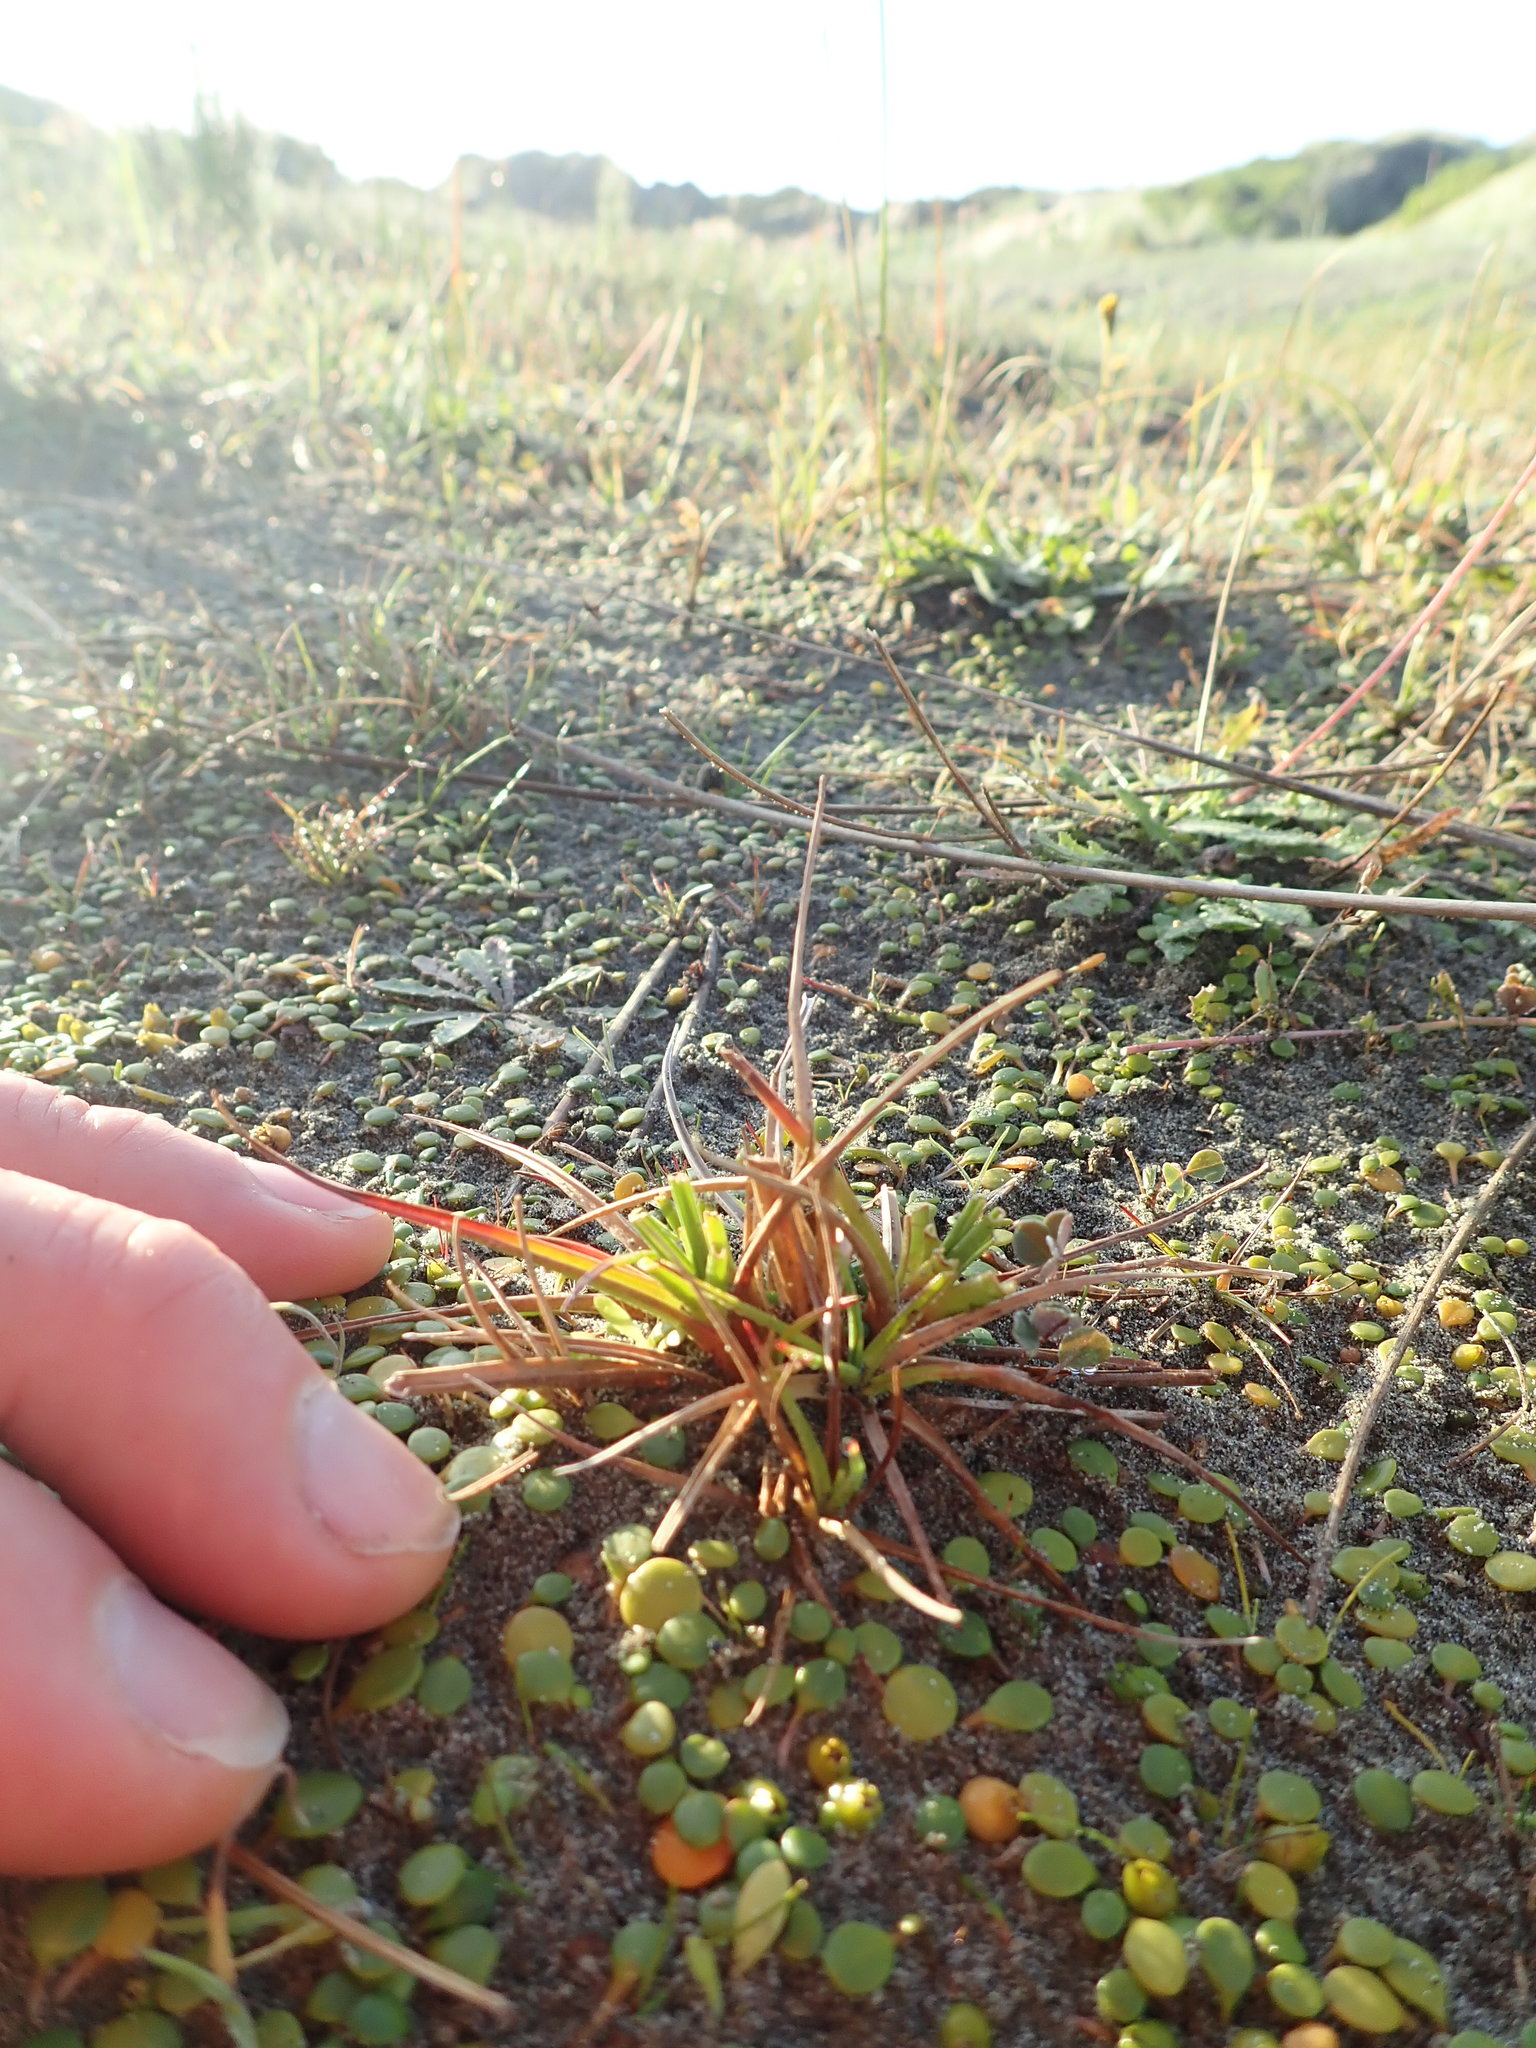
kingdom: Plantae
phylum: Tracheophyta
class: Liliopsida
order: Poales
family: Juncaceae
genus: Juncus
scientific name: Juncus caespiticius
